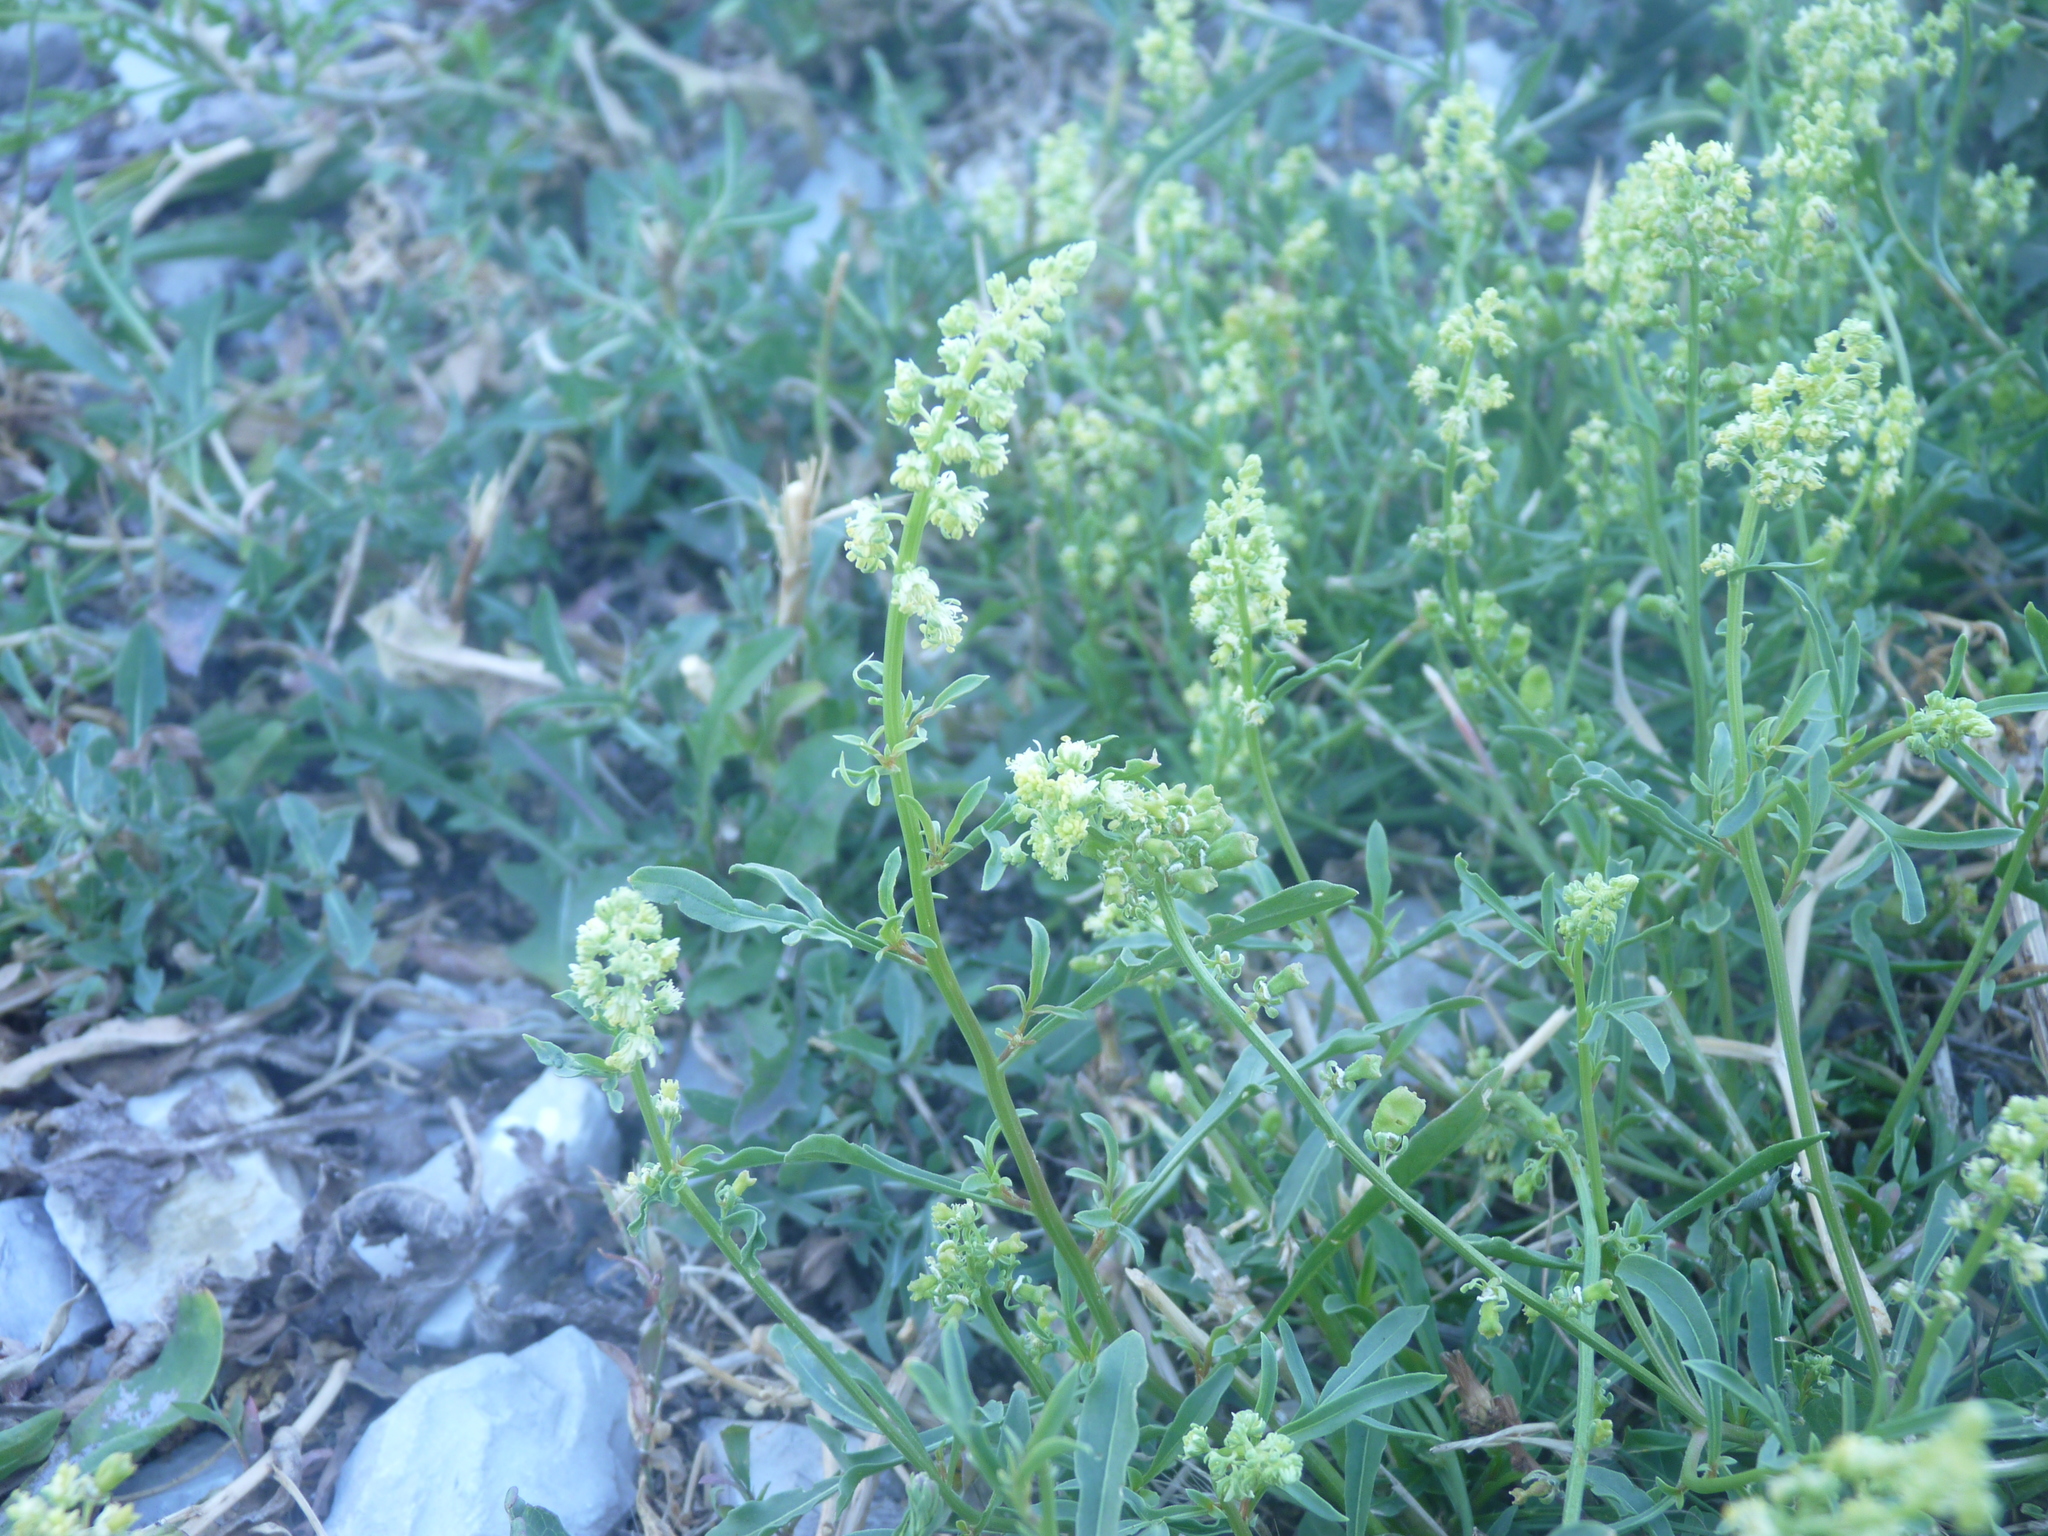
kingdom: Plantae
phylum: Tracheophyta
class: Magnoliopsida
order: Brassicales
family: Resedaceae
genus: Reseda
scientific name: Reseda lutea
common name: Wild mignonette
